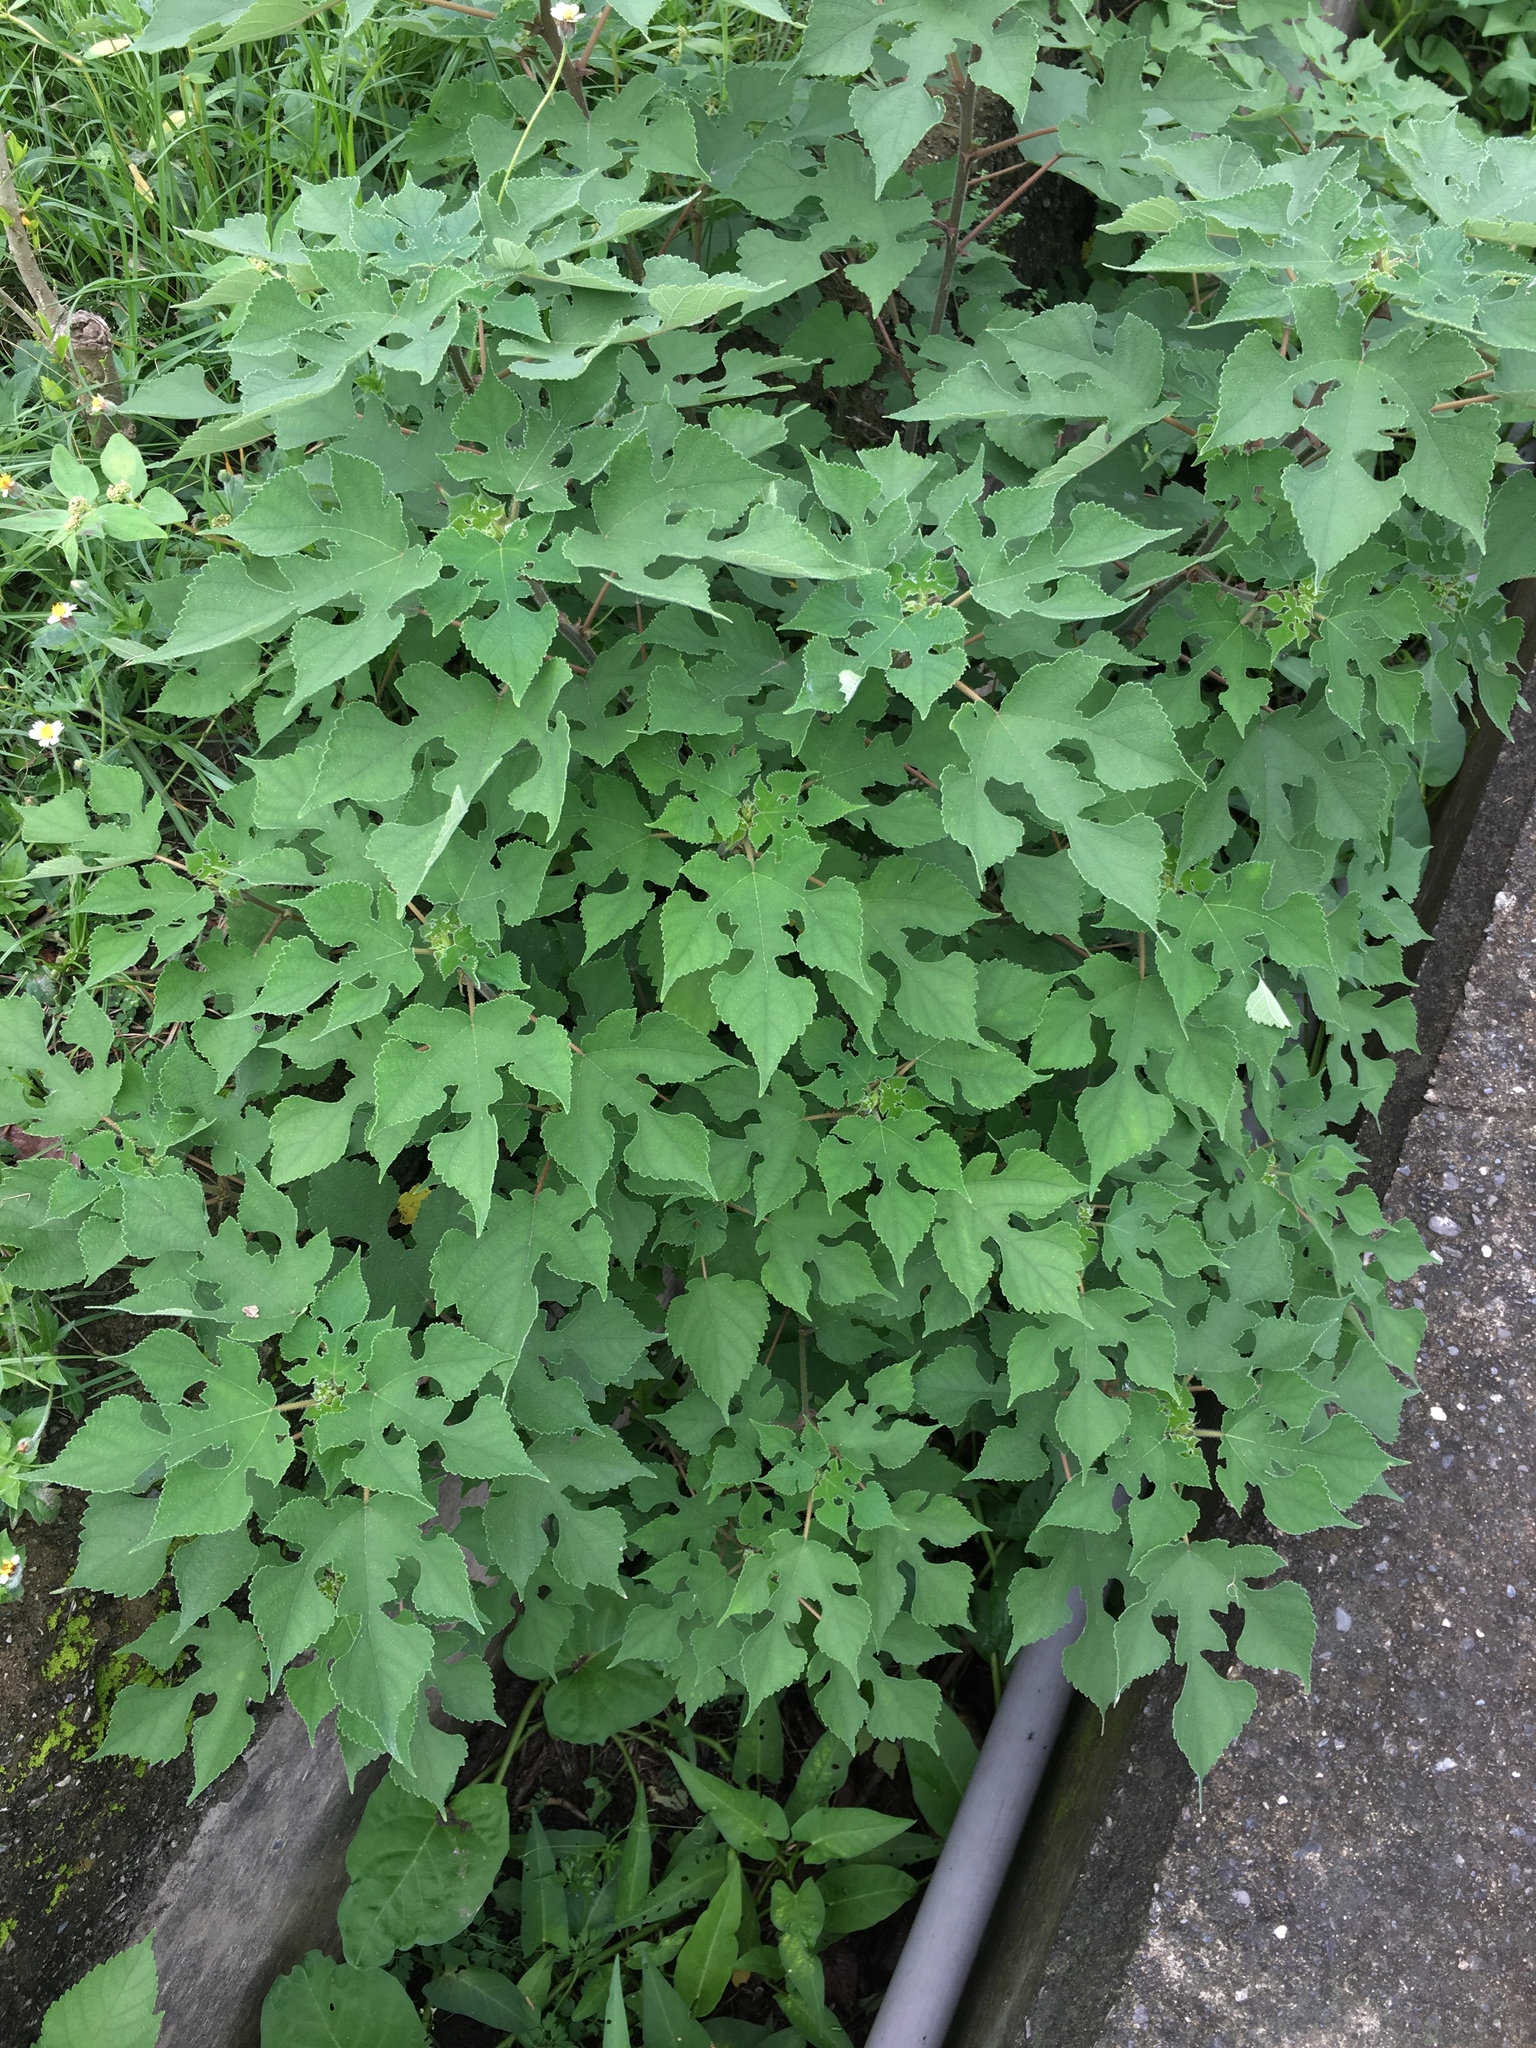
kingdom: Plantae
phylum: Tracheophyta
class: Magnoliopsida
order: Rosales
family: Moraceae
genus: Broussonetia
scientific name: Broussonetia papyrifera
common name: Paper mulberry
